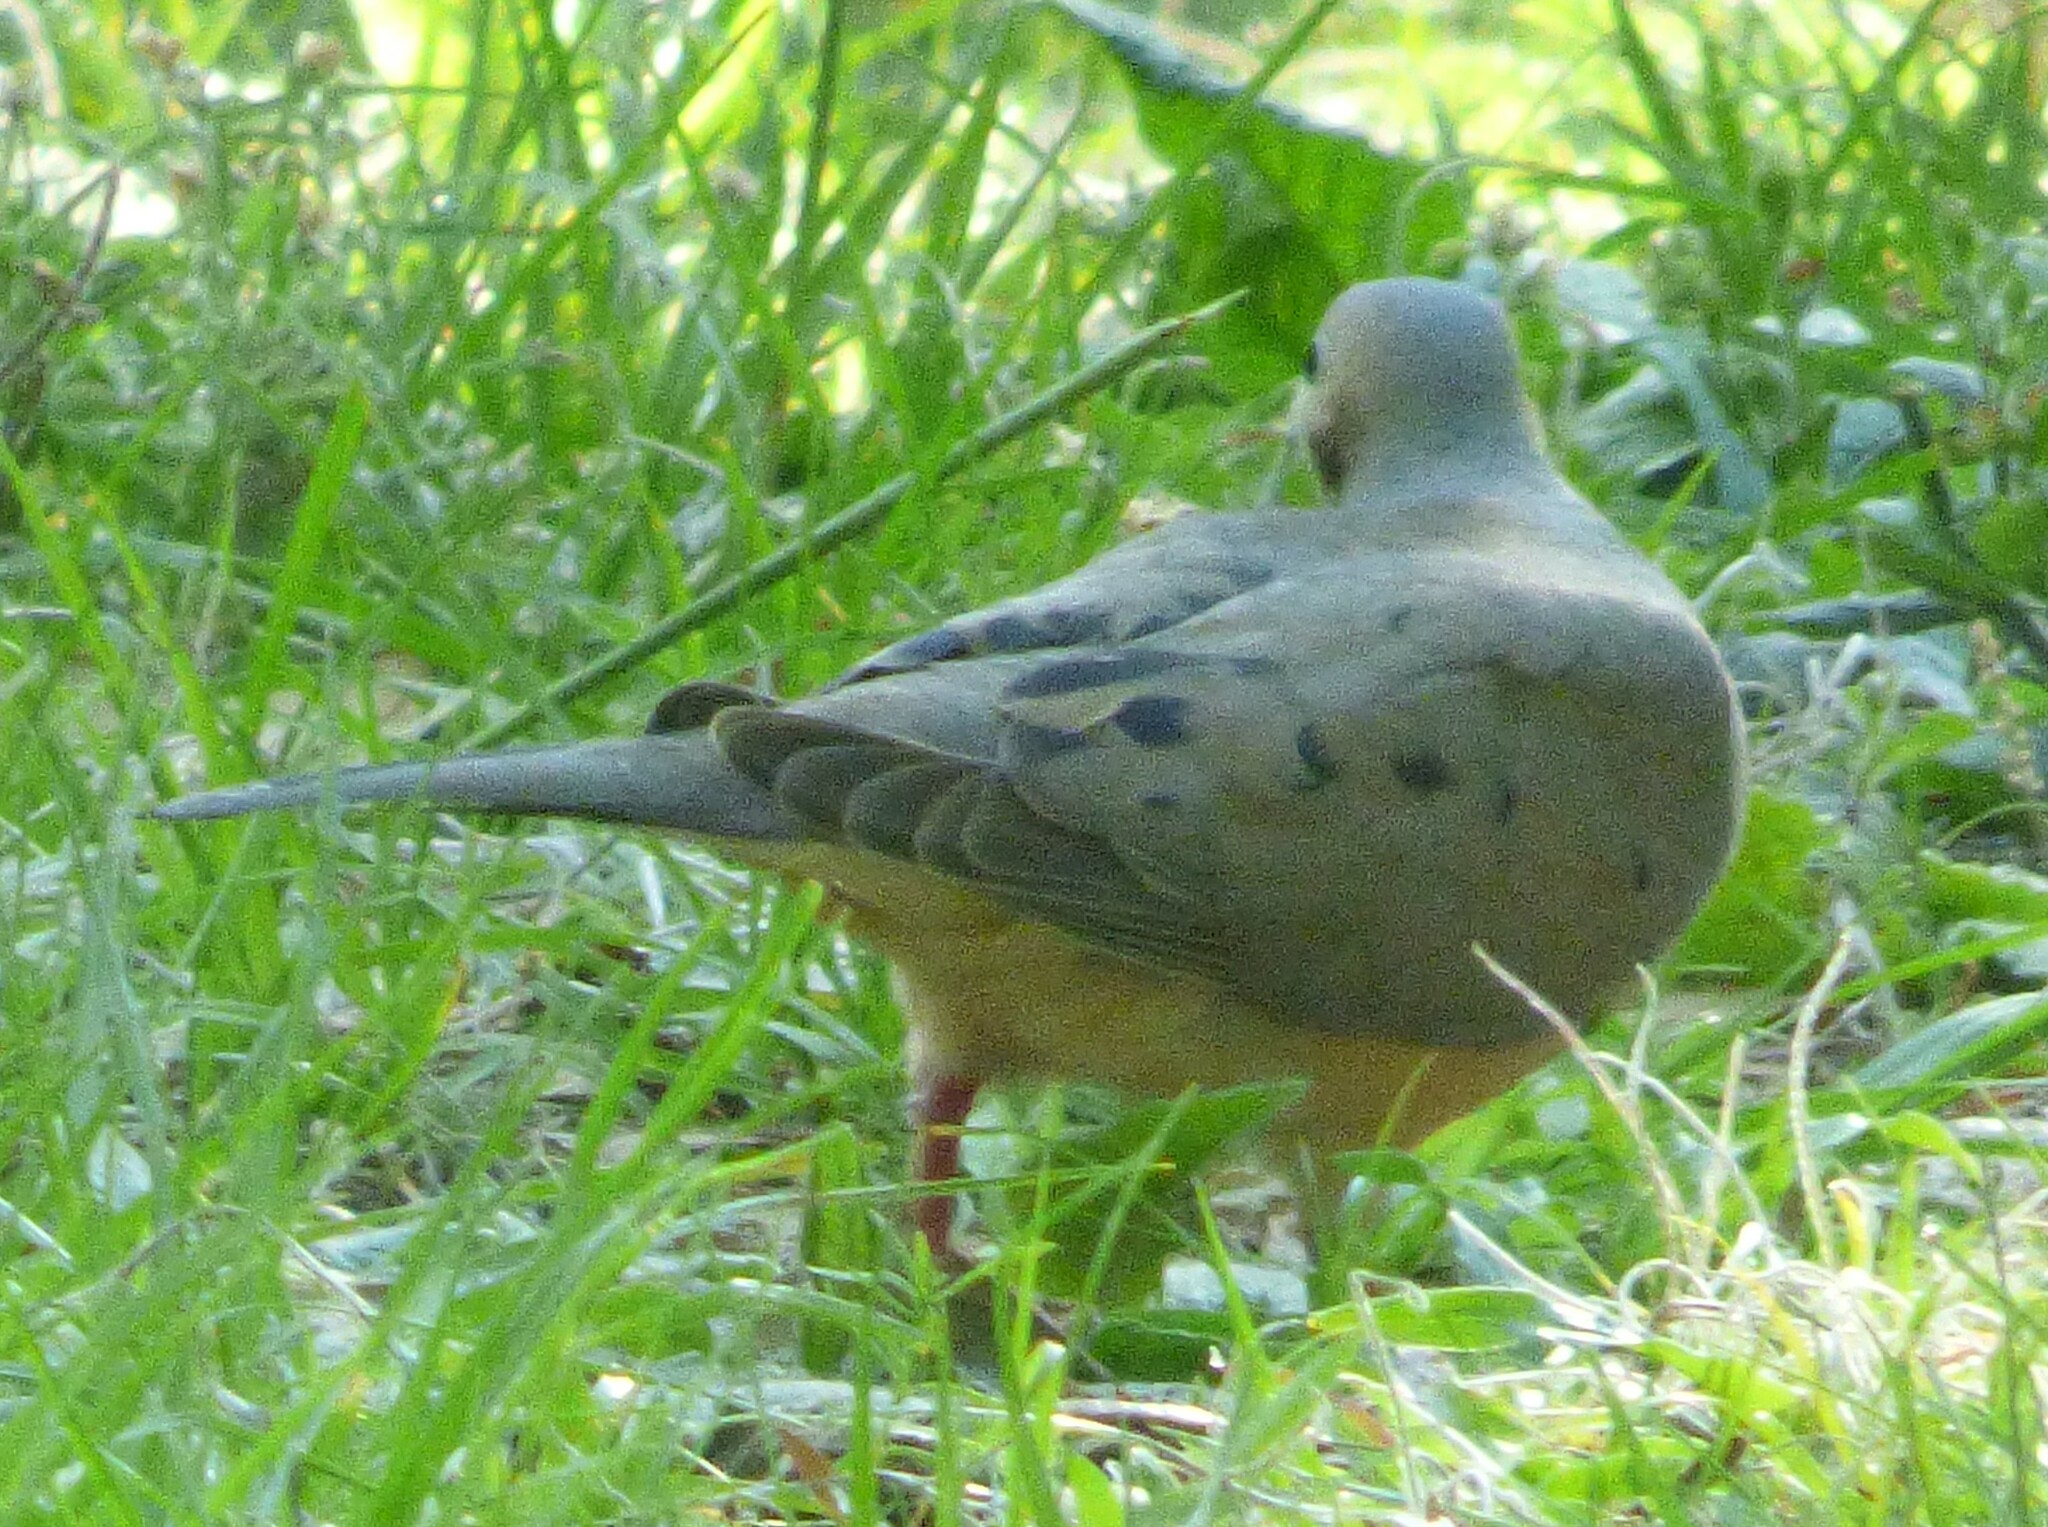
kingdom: Animalia
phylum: Chordata
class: Aves
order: Columbiformes
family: Columbidae
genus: Zenaida
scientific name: Zenaida macroura
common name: Mourning dove
